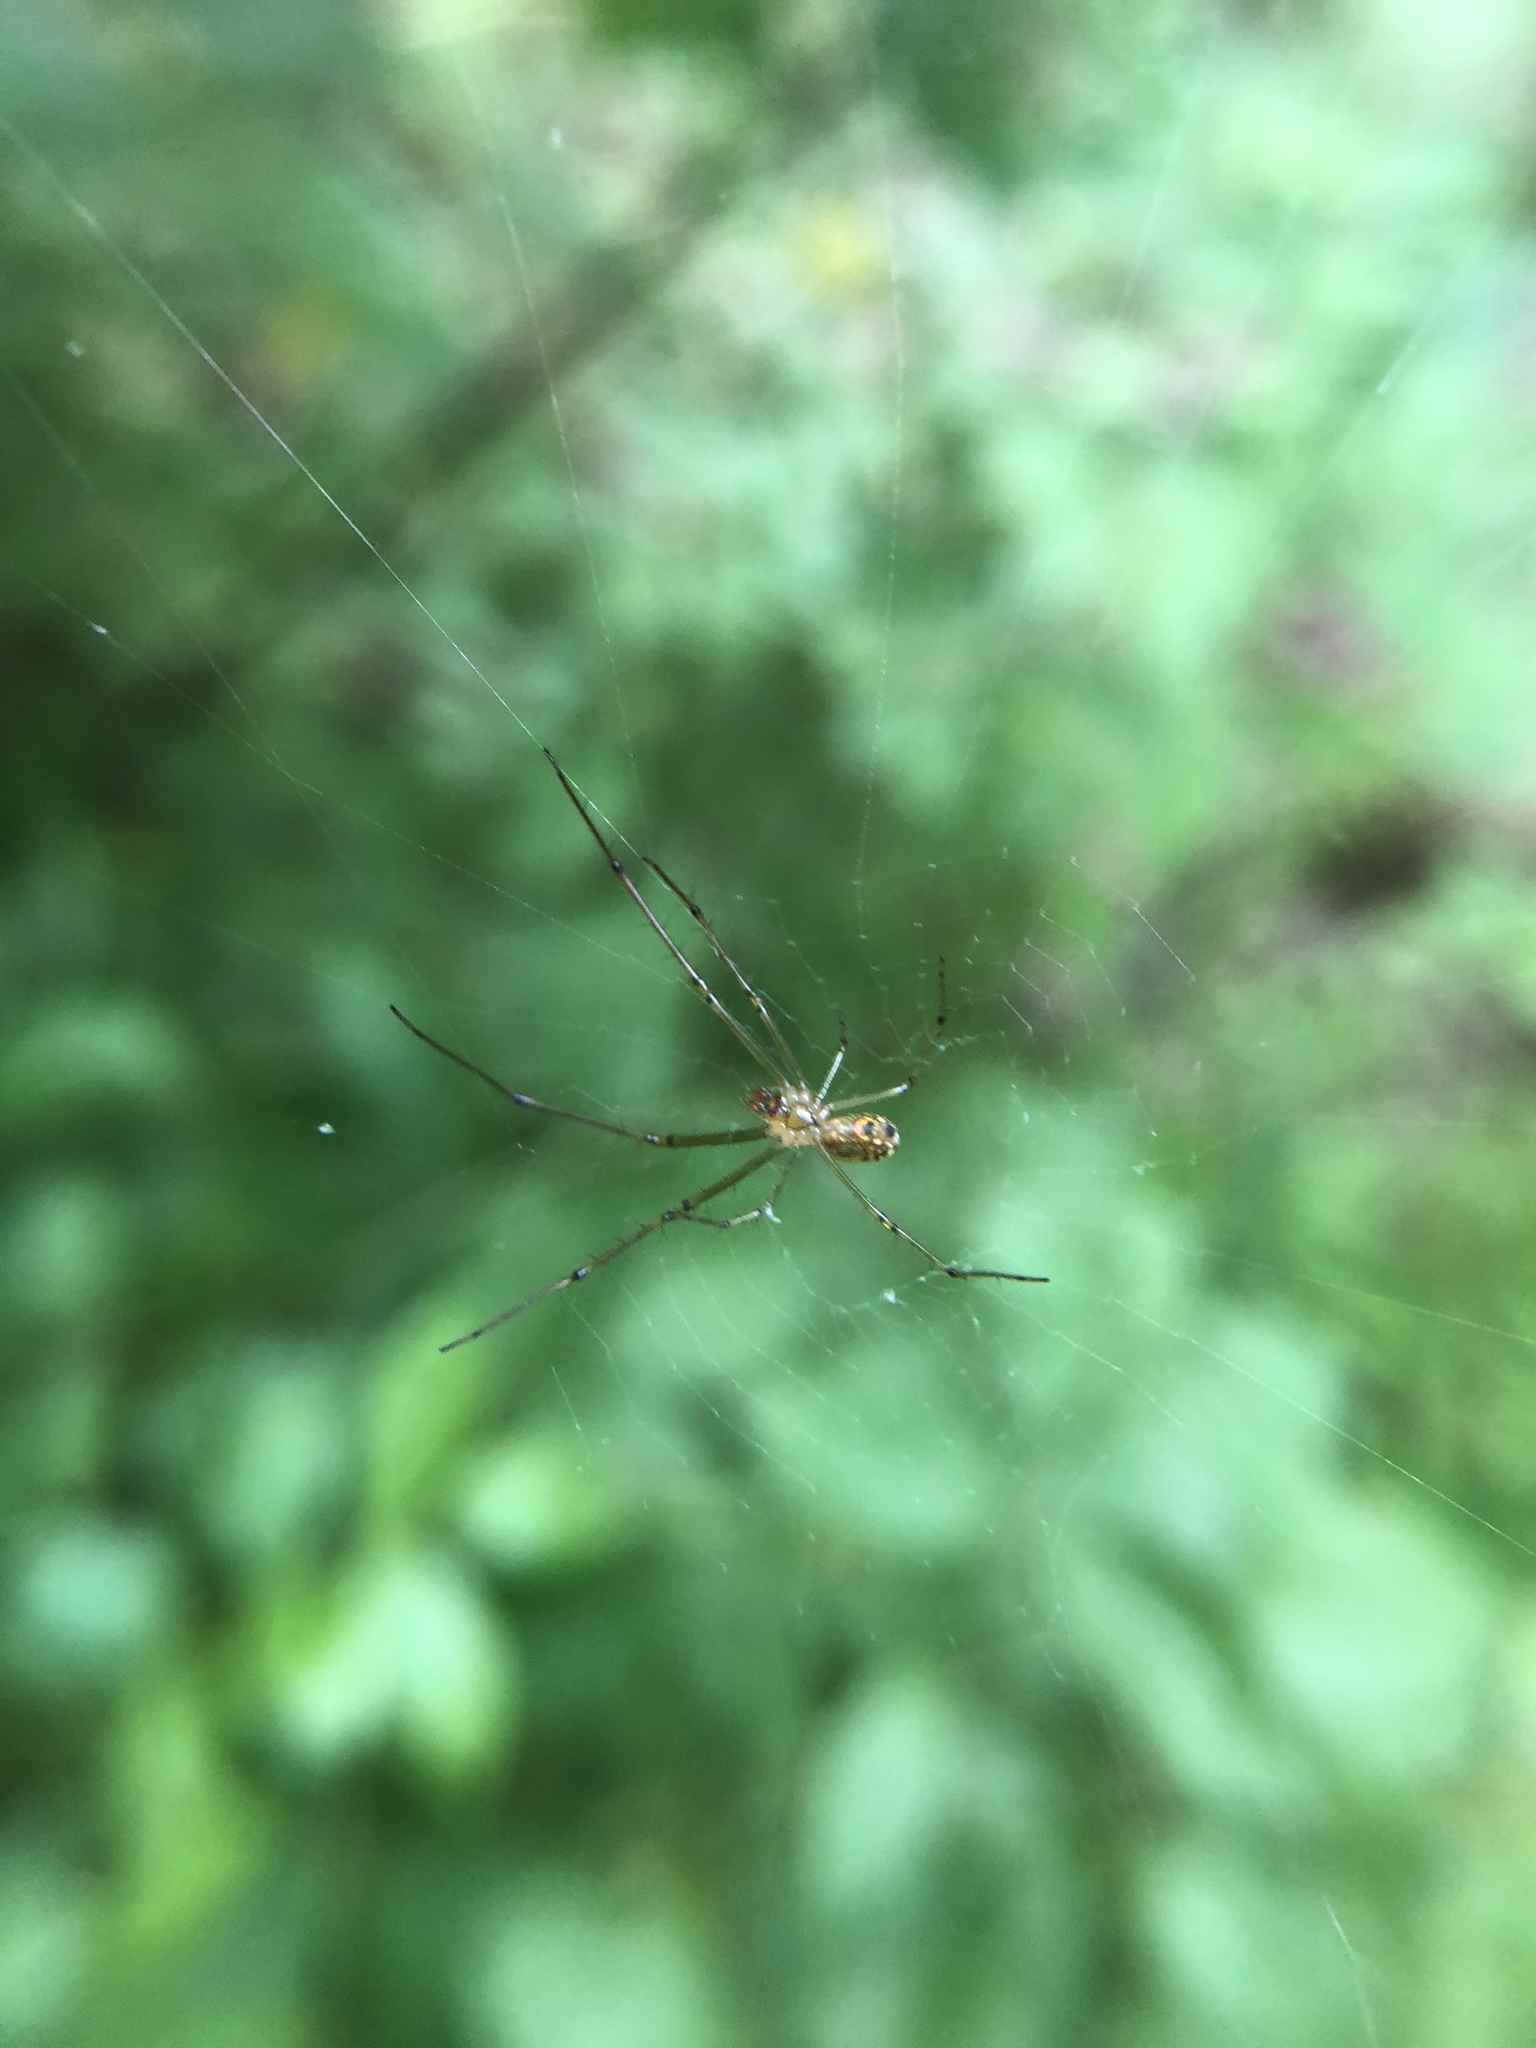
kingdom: Animalia
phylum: Arthropoda
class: Arachnida
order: Araneae
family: Tetragnathidae
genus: Leucauge
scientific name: Leucauge venusta
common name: Longjawed orb weavers
